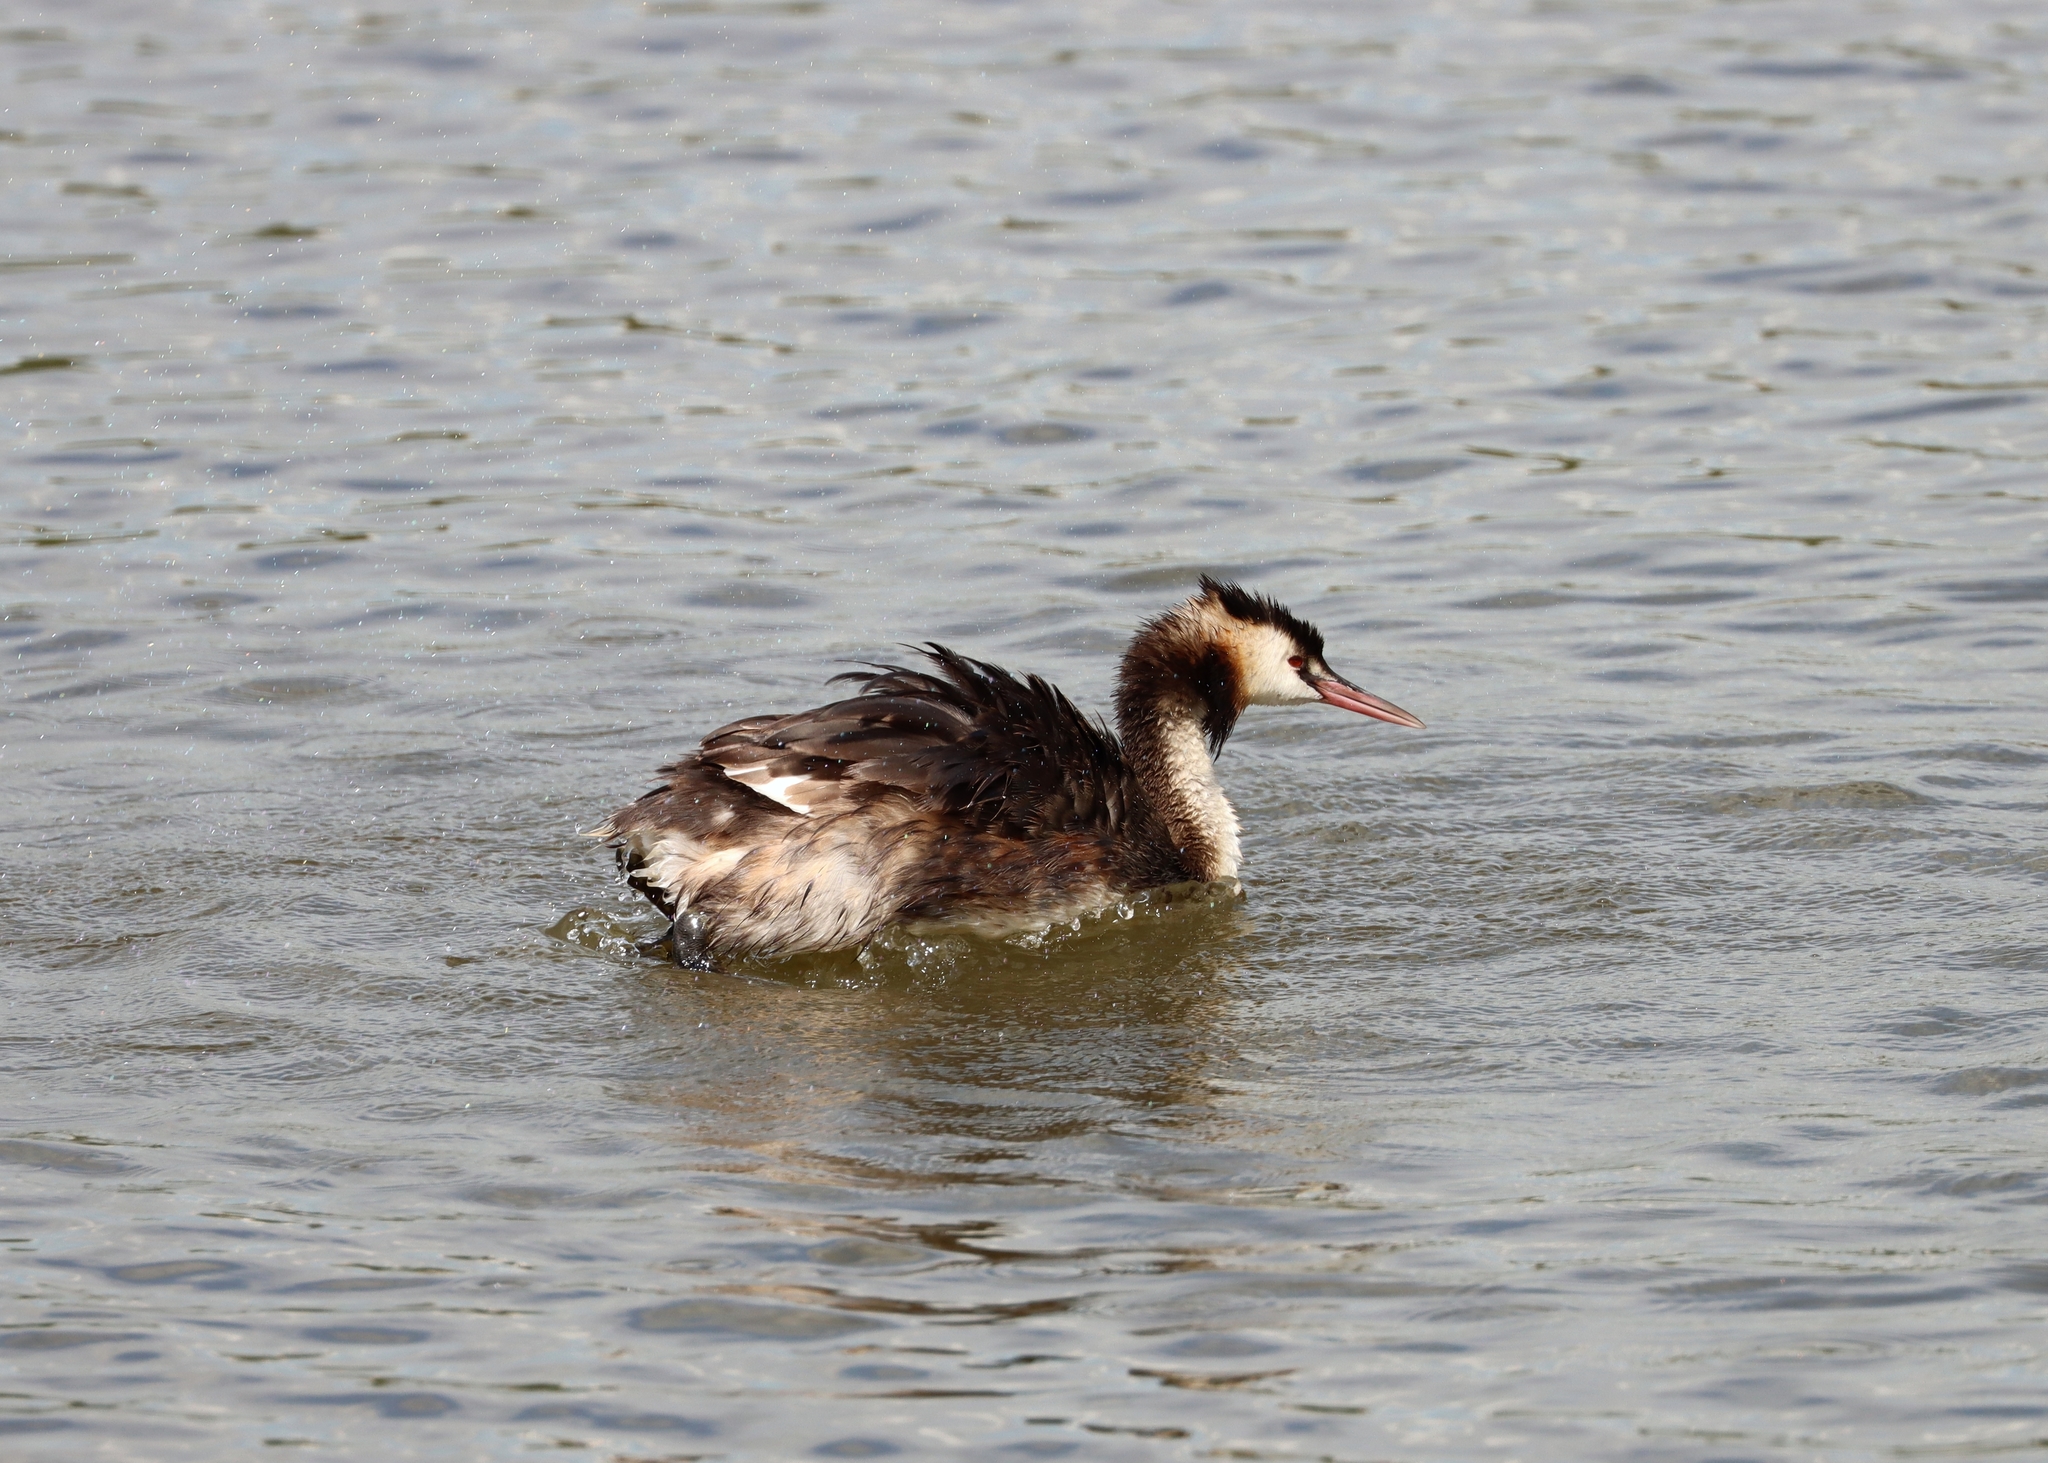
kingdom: Animalia
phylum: Chordata
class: Aves
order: Podicipediformes
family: Podicipedidae
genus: Podiceps
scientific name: Podiceps cristatus
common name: Great crested grebe
